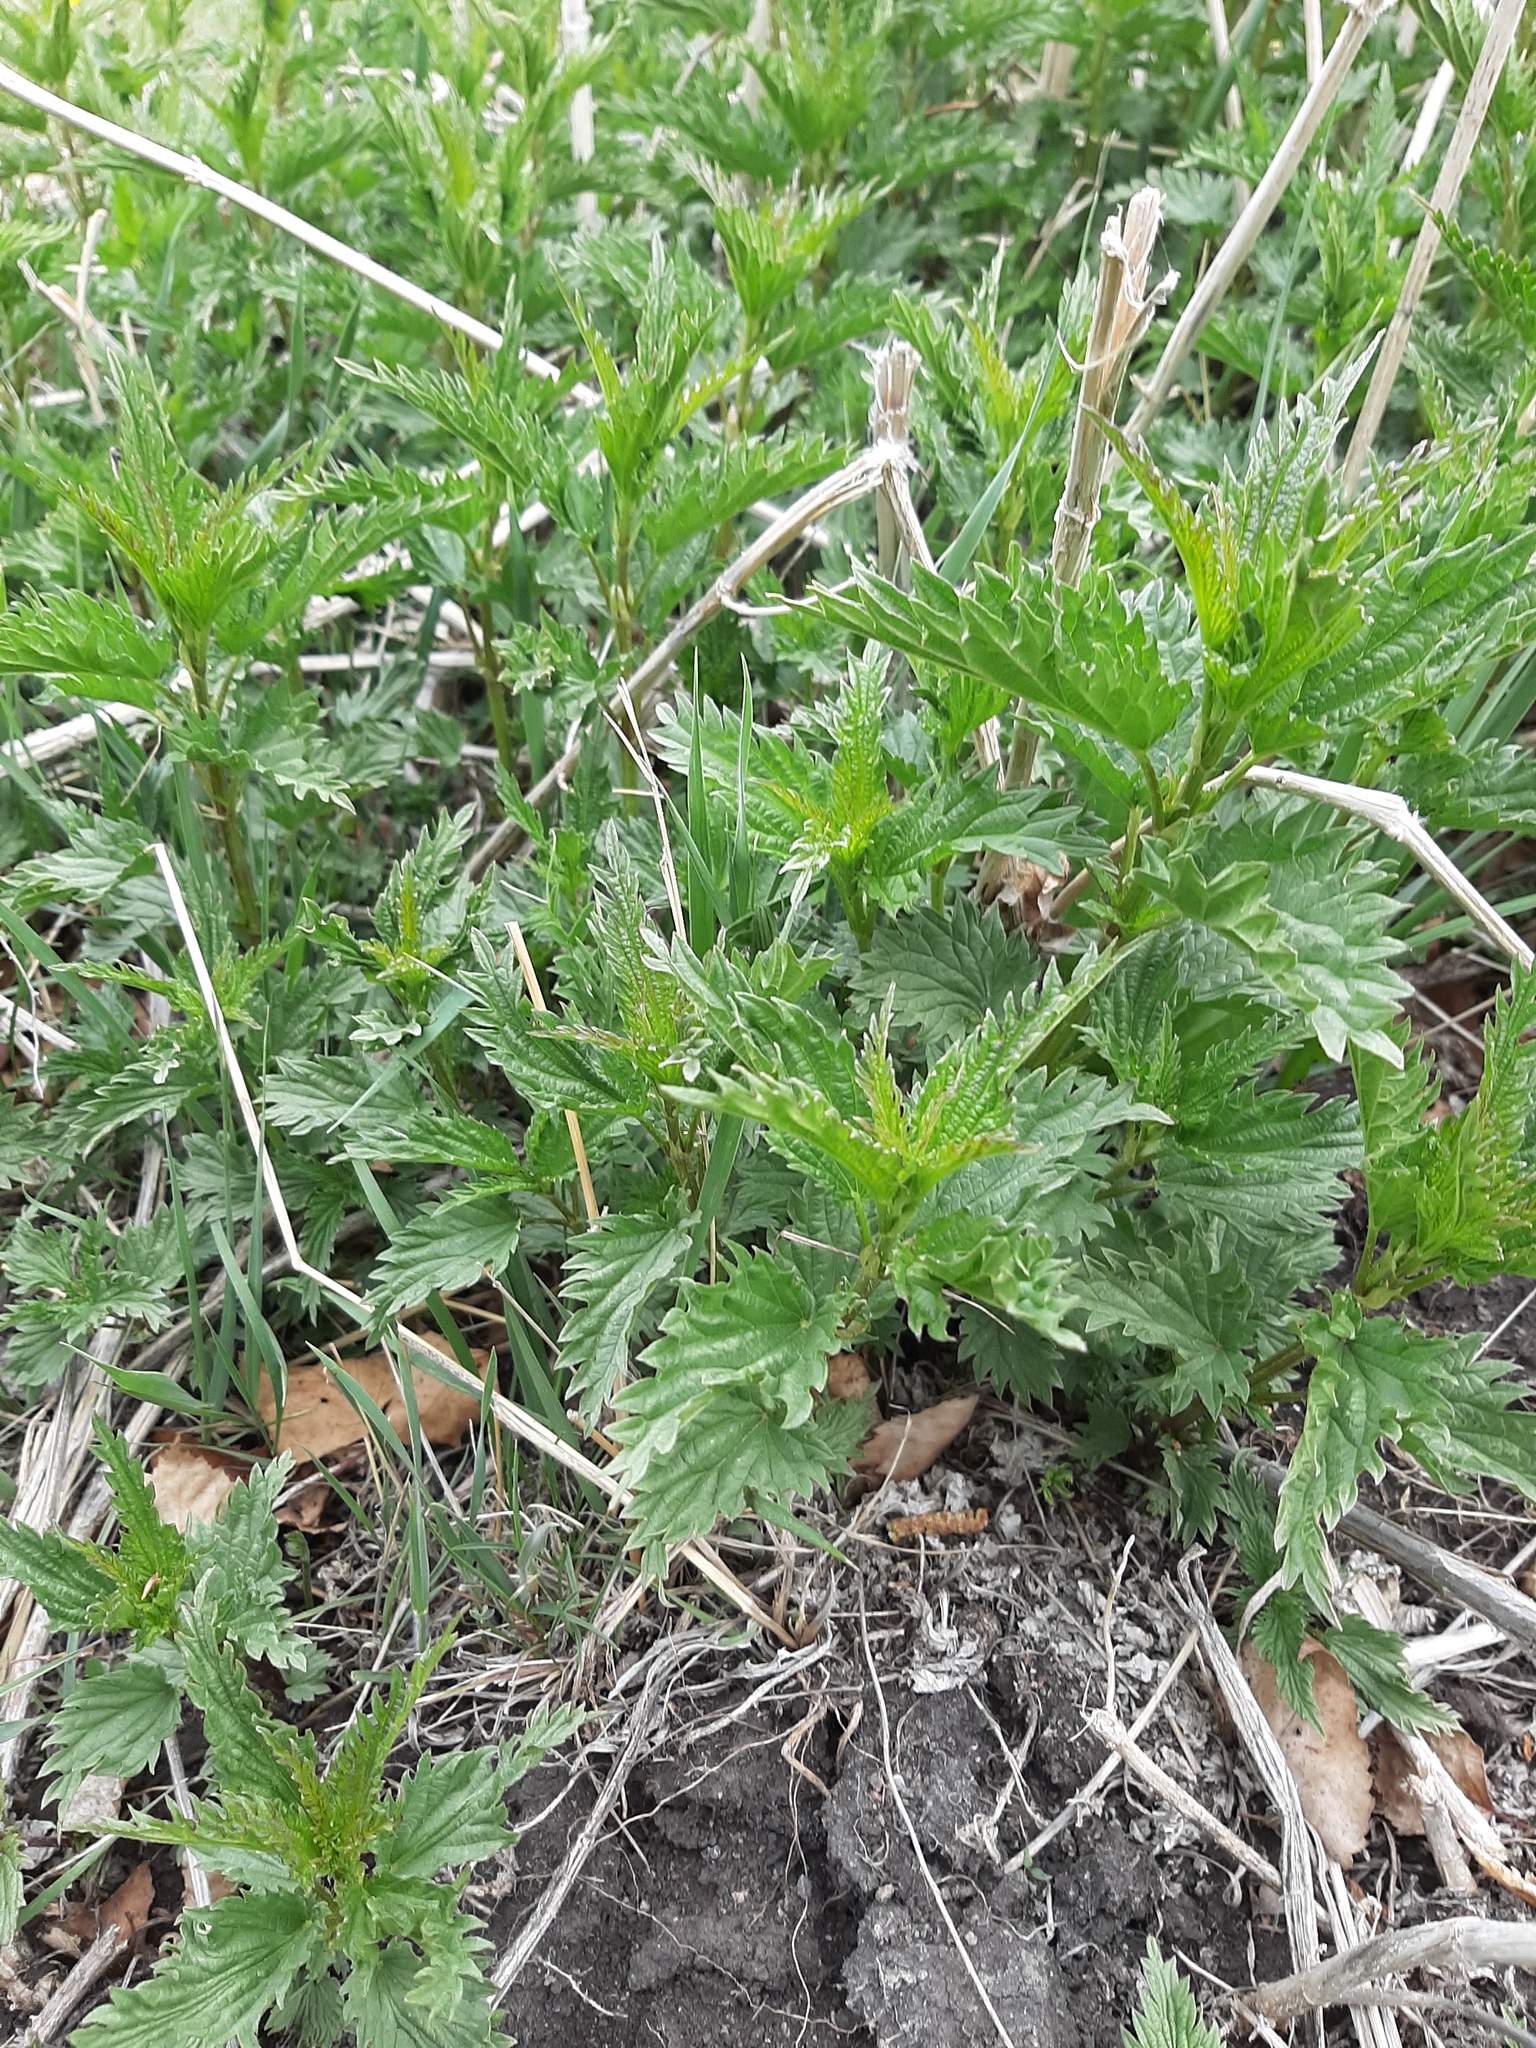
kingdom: Plantae
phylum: Tracheophyta
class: Magnoliopsida
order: Rosales
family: Urticaceae
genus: Urtica
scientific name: Urtica dioica
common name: Common nettle
